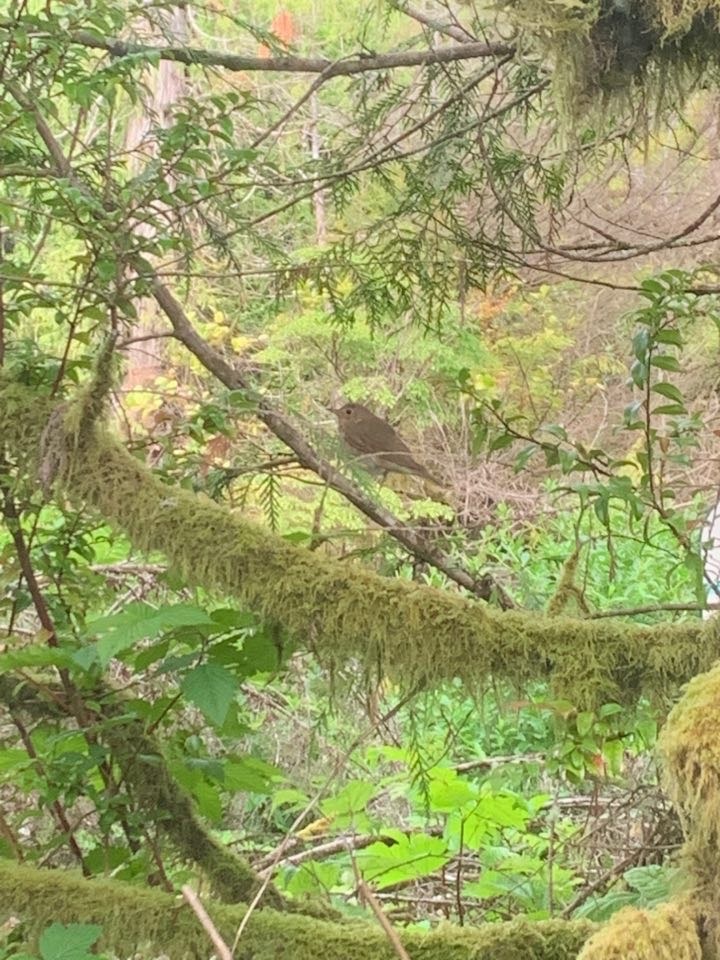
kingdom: Animalia
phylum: Chordata
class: Aves
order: Passeriformes
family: Turdidae
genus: Catharus
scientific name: Catharus ustulatus
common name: Swainson's thrush
